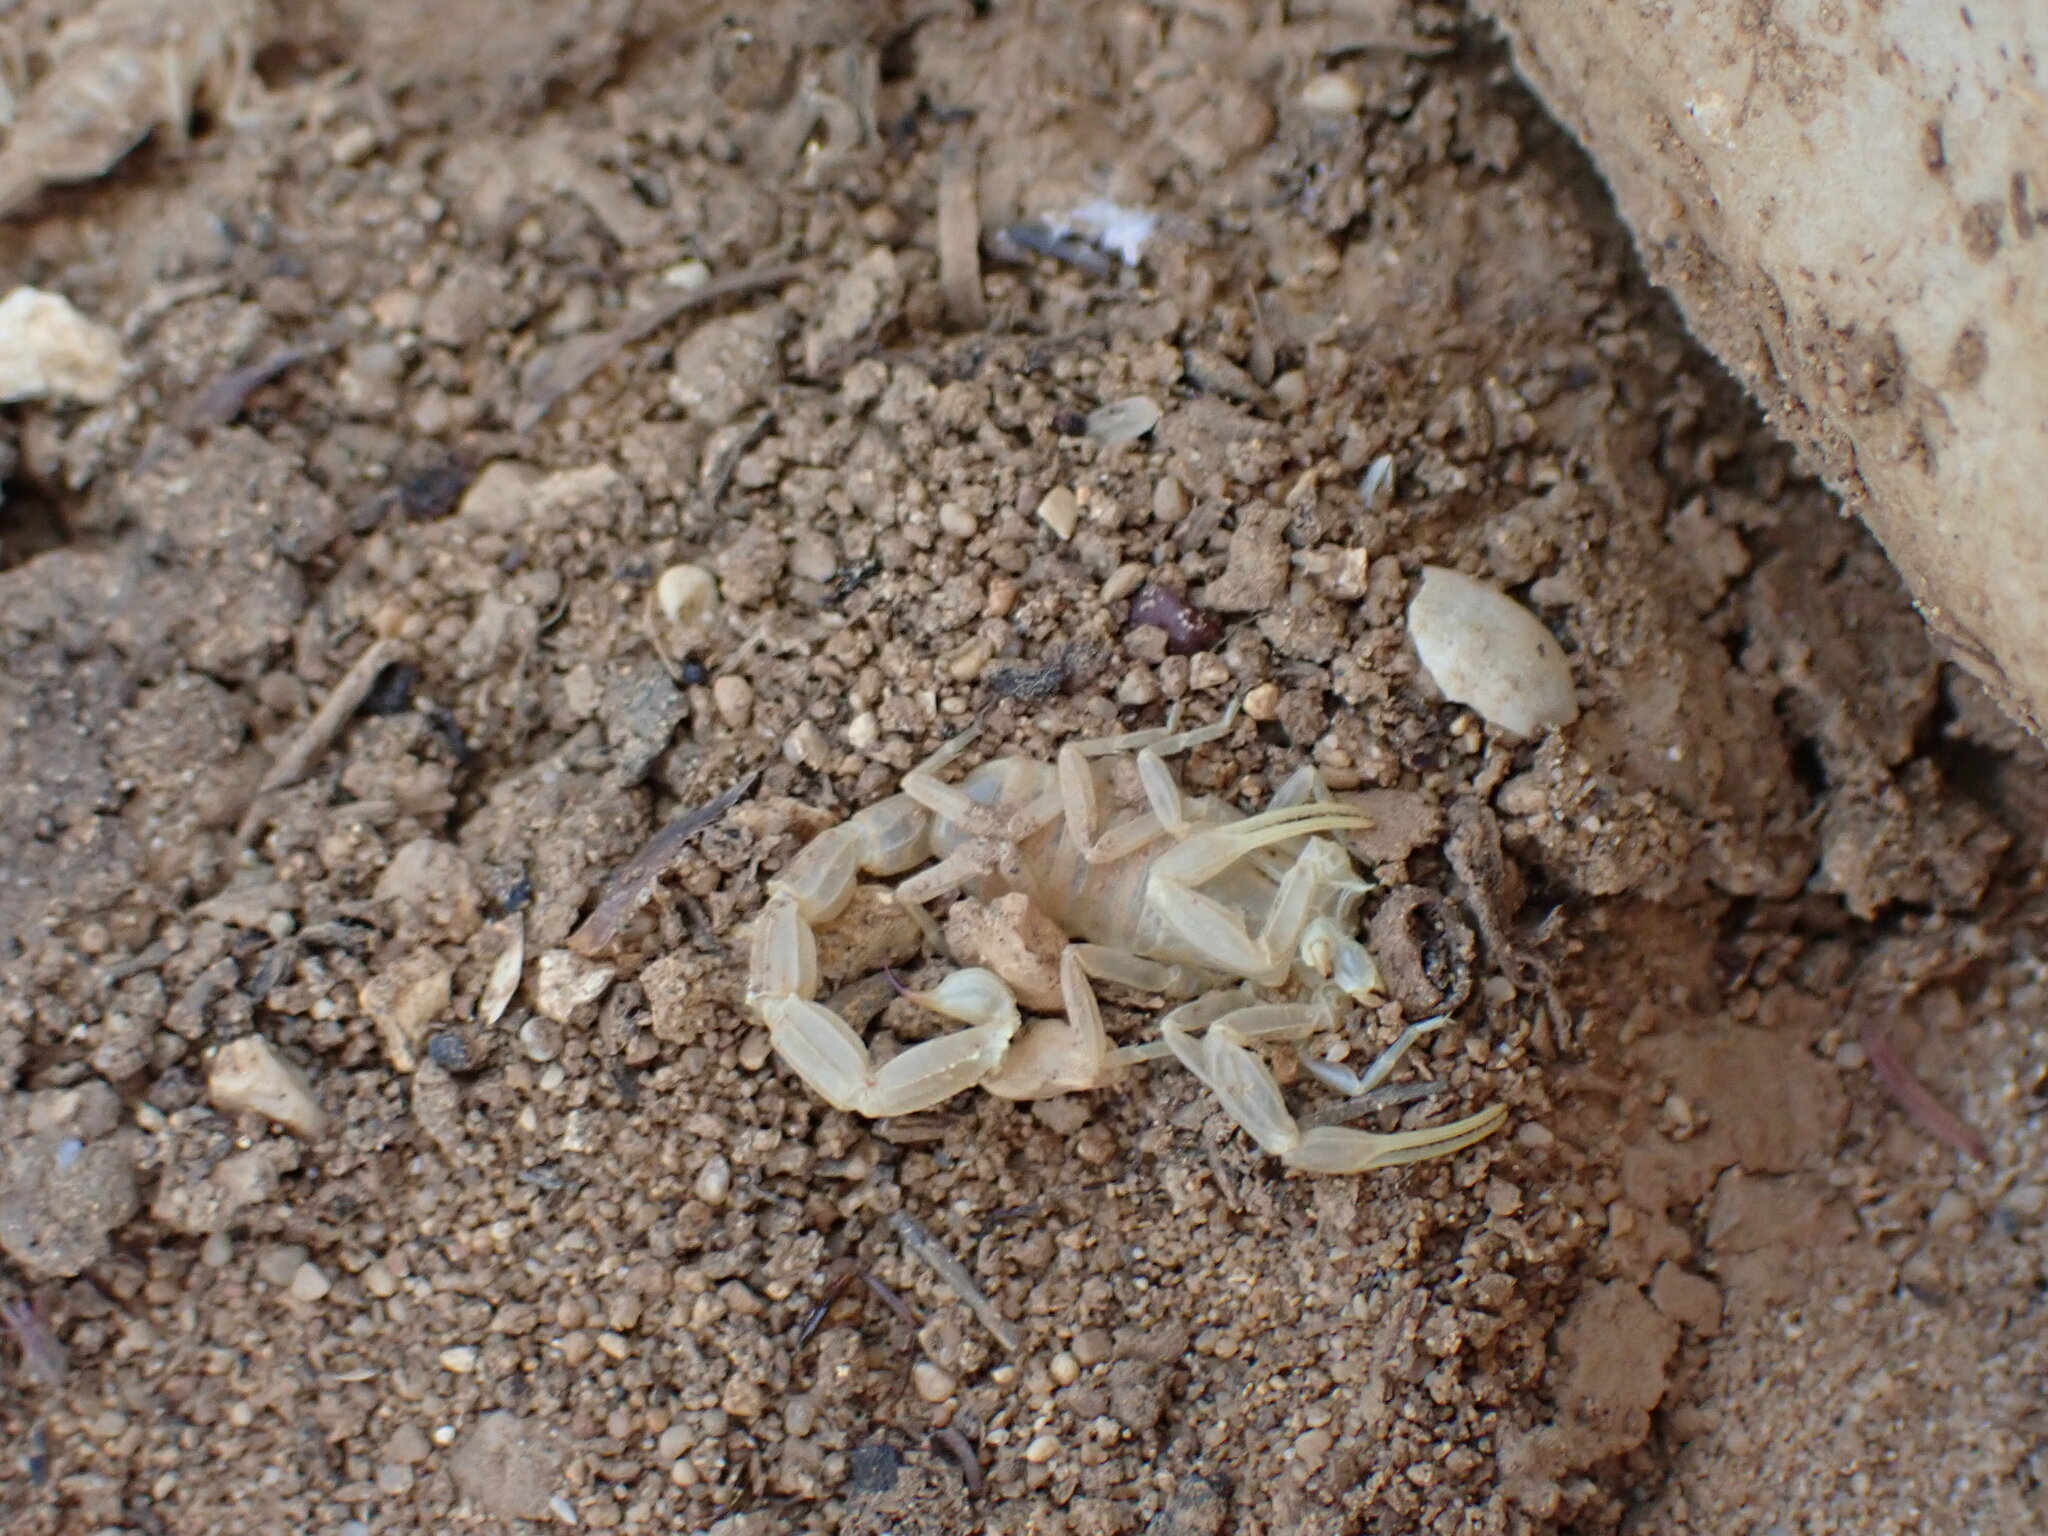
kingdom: Animalia
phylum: Arthropoda
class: Arachnida
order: Scorpiones
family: Buthidae
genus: Buthus
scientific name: Buthus occitanus
